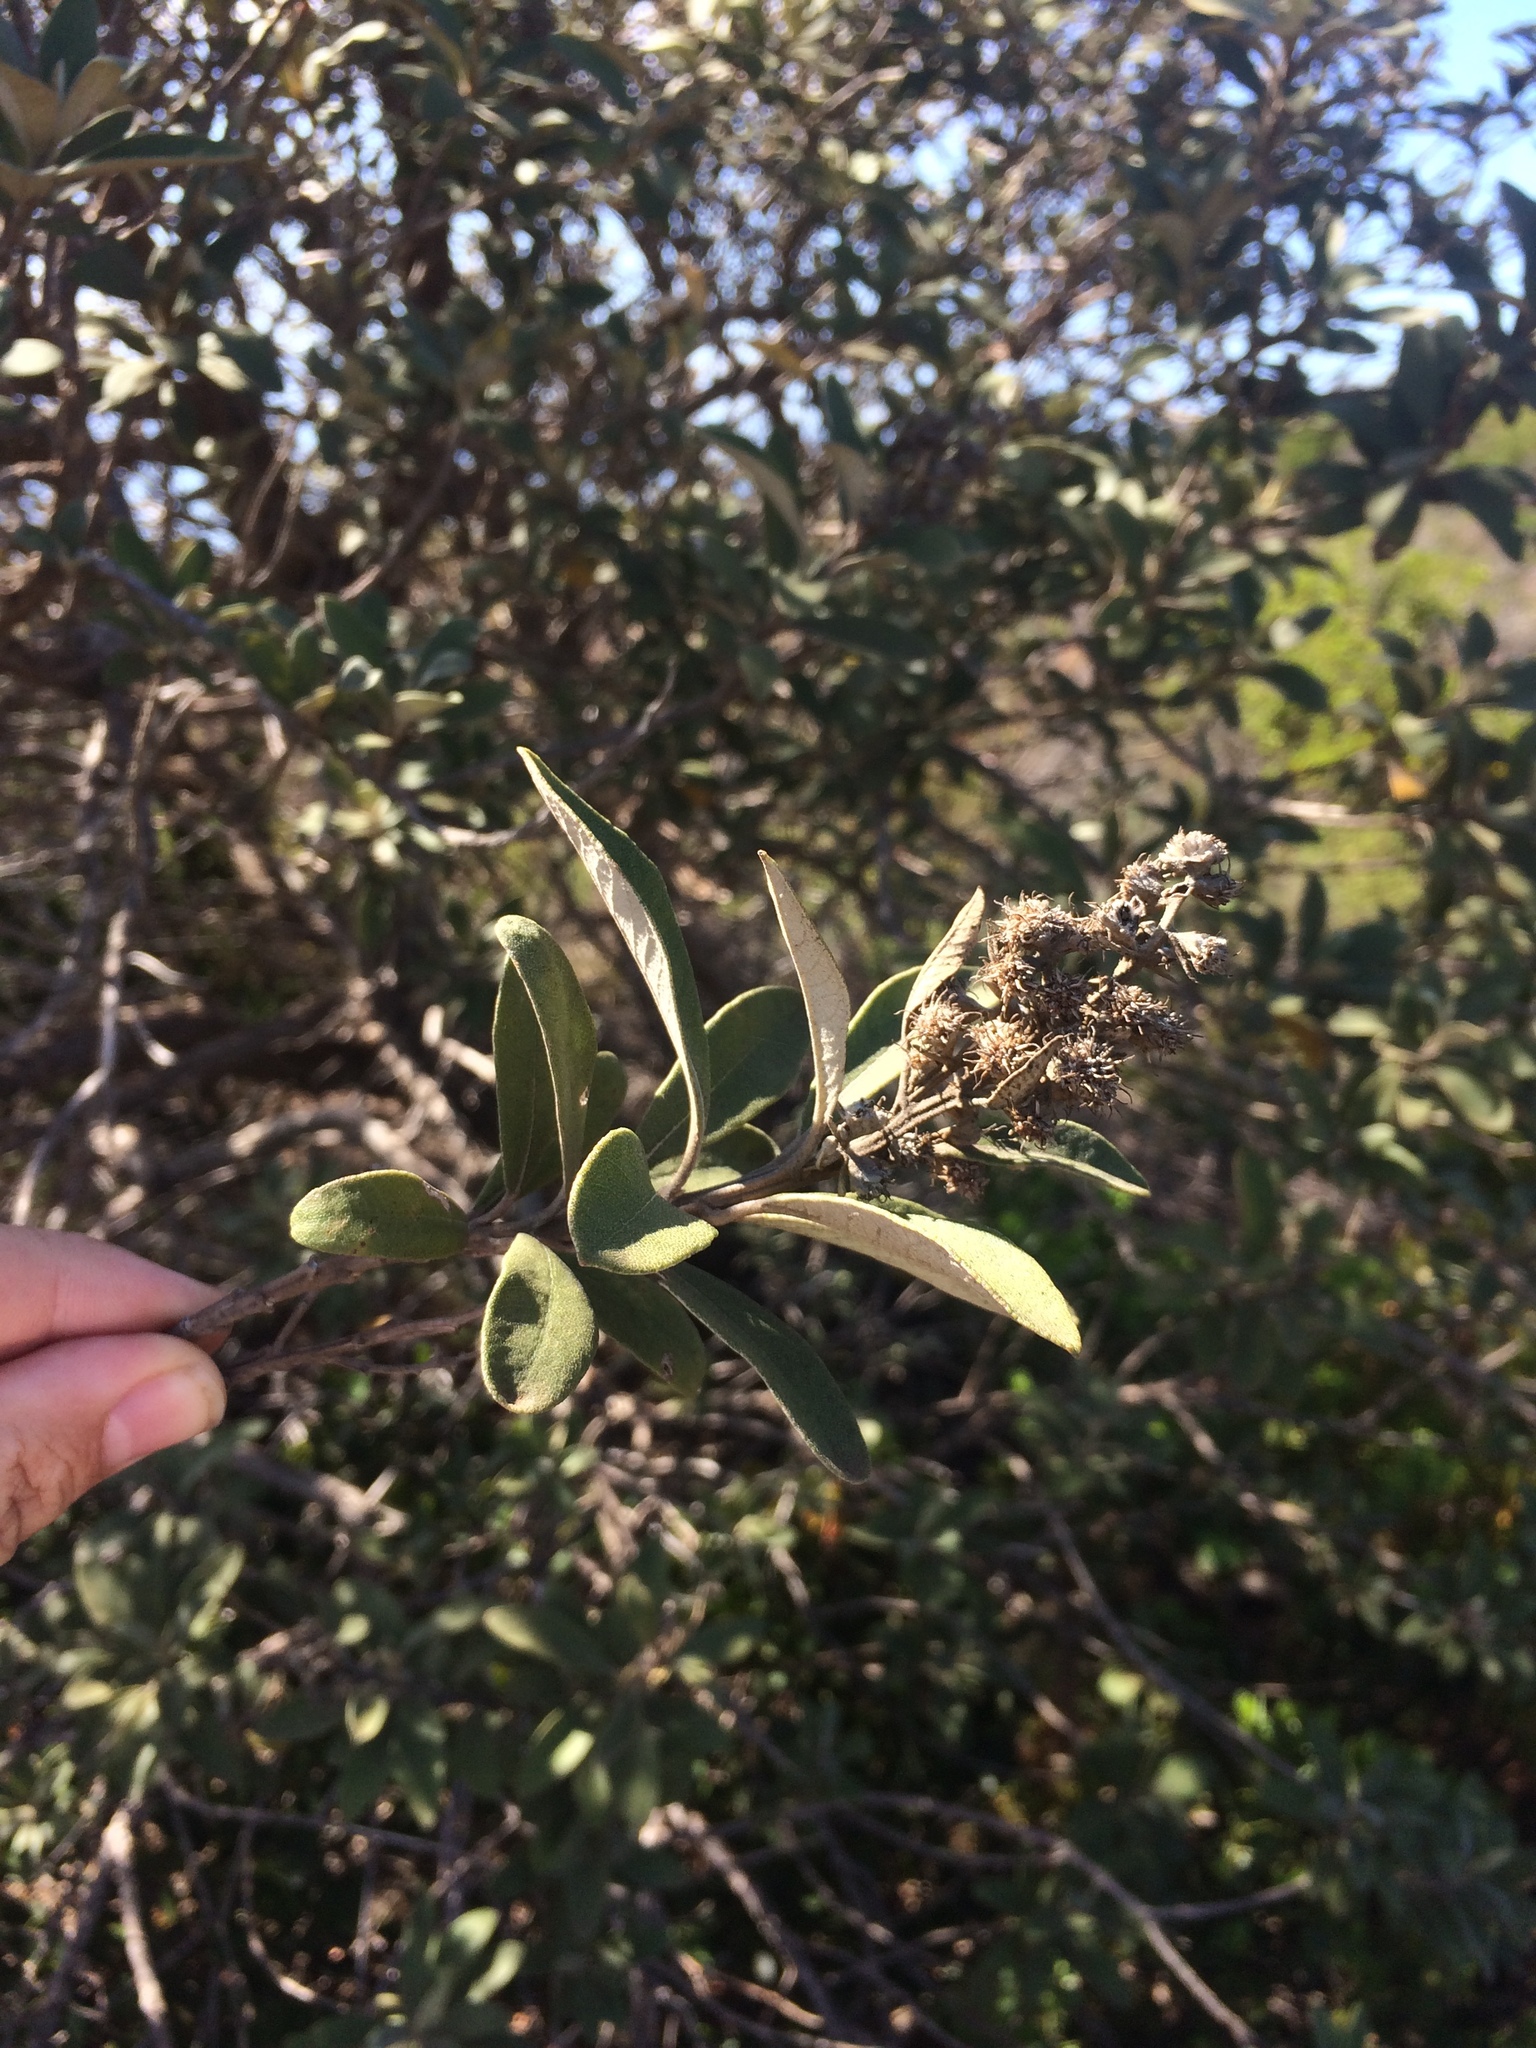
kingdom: Plantae
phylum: Tracheophyta
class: Magnoliopsida
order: Asterales
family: Asteraceae
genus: Tarchonanthus
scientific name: Tarchonanthus littoralis
